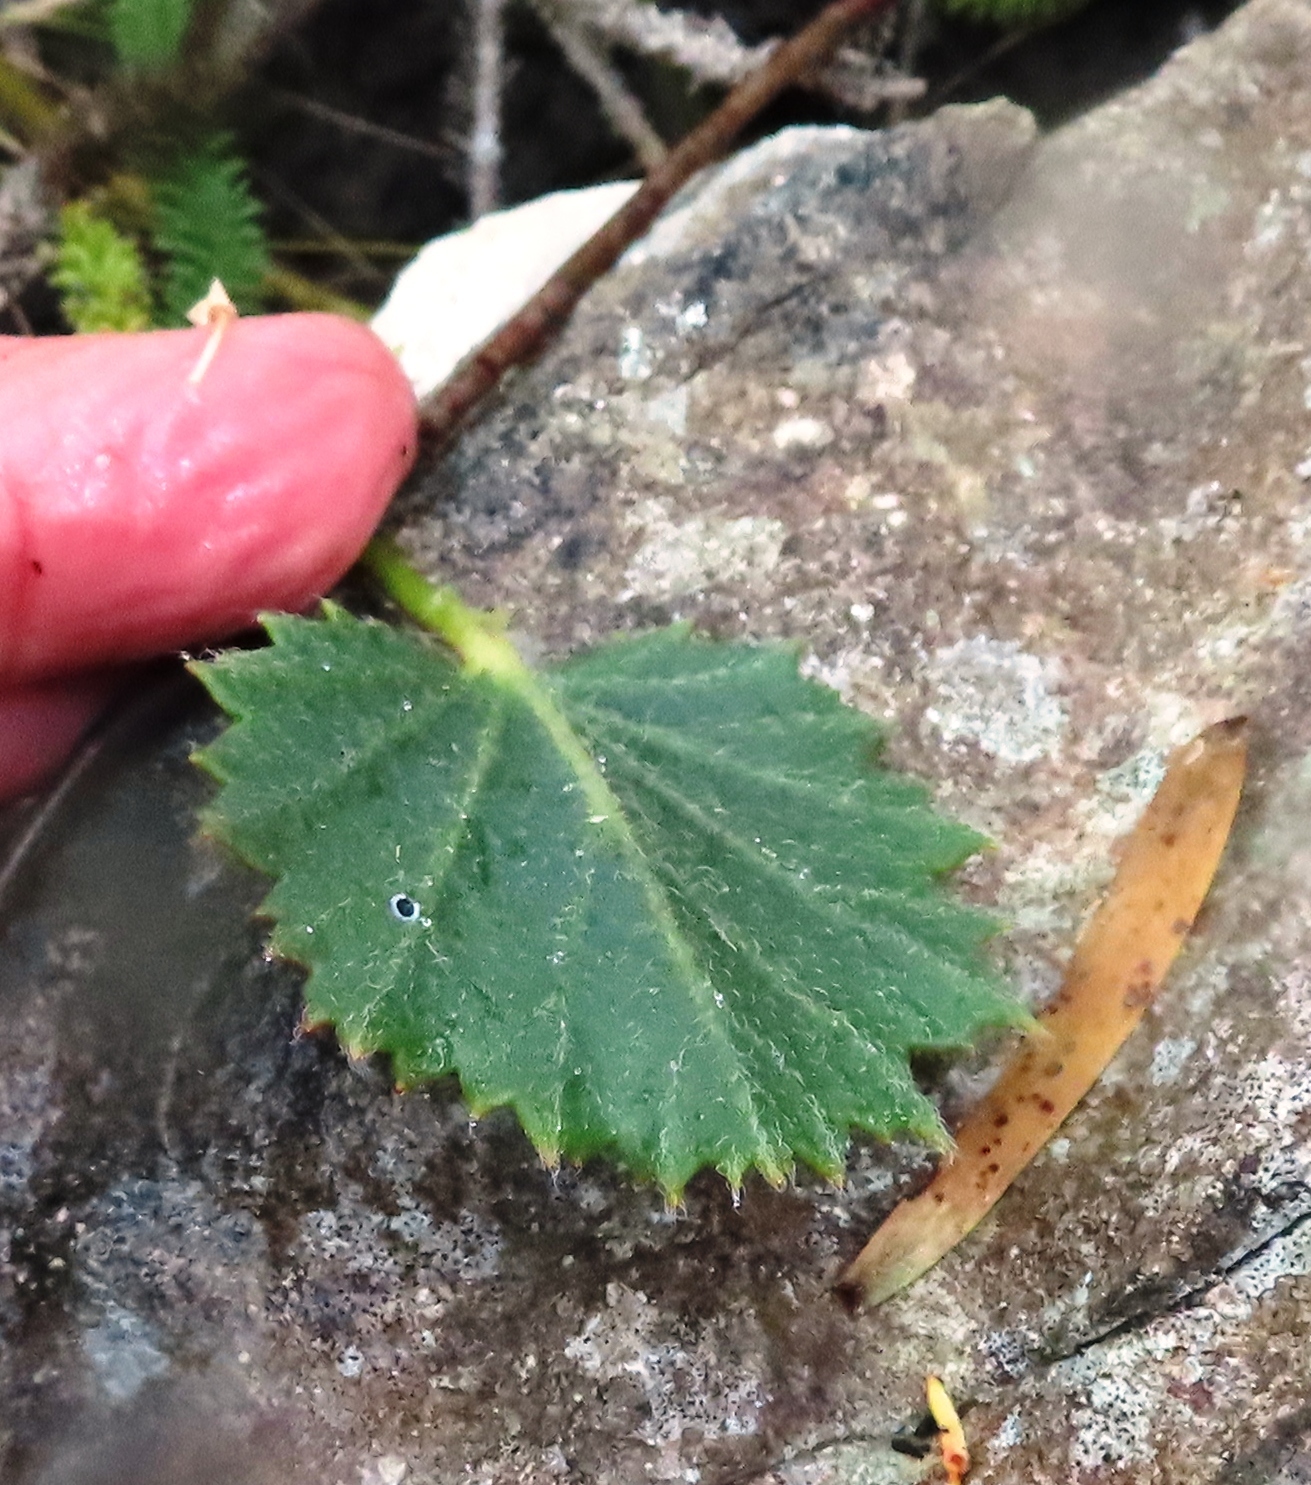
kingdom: Plantae
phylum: Tracheophyta
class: Magnoliopsida
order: Geraniales
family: Geraniaceae
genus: Pelargonium
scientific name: Pelargonium elegans
